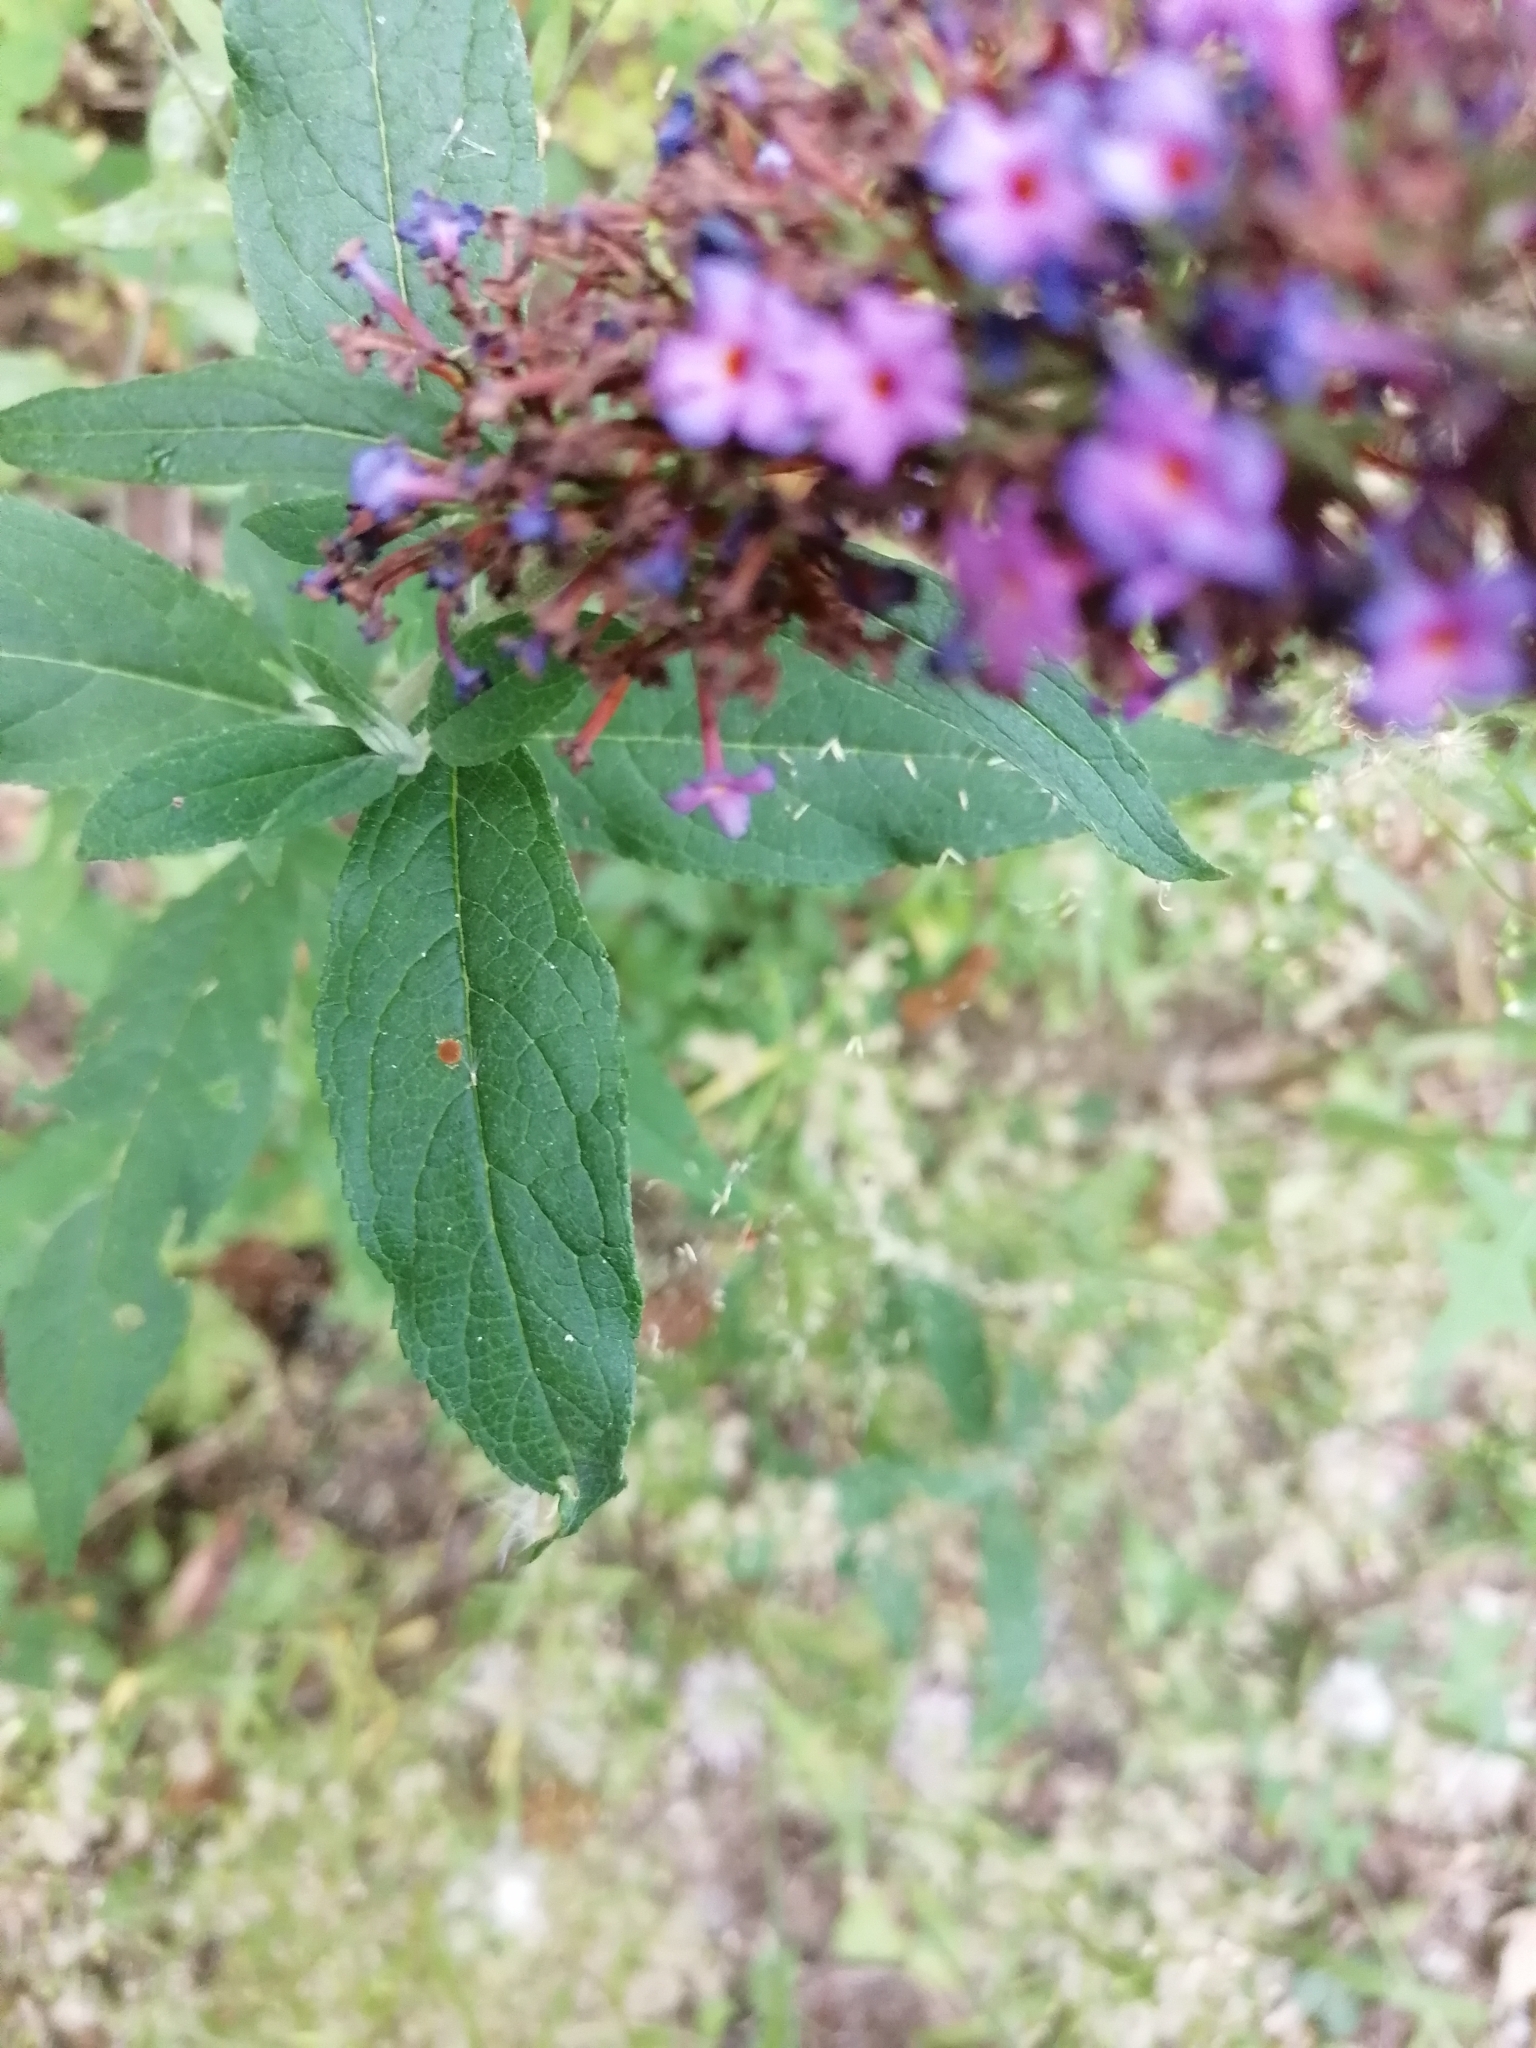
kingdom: Plantae
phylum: Tracheophyta
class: Magnoliopsida
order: Lamiales
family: Scrophulariaceae
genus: Buddleja
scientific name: Buddleja davidii
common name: Butterfly-bush
